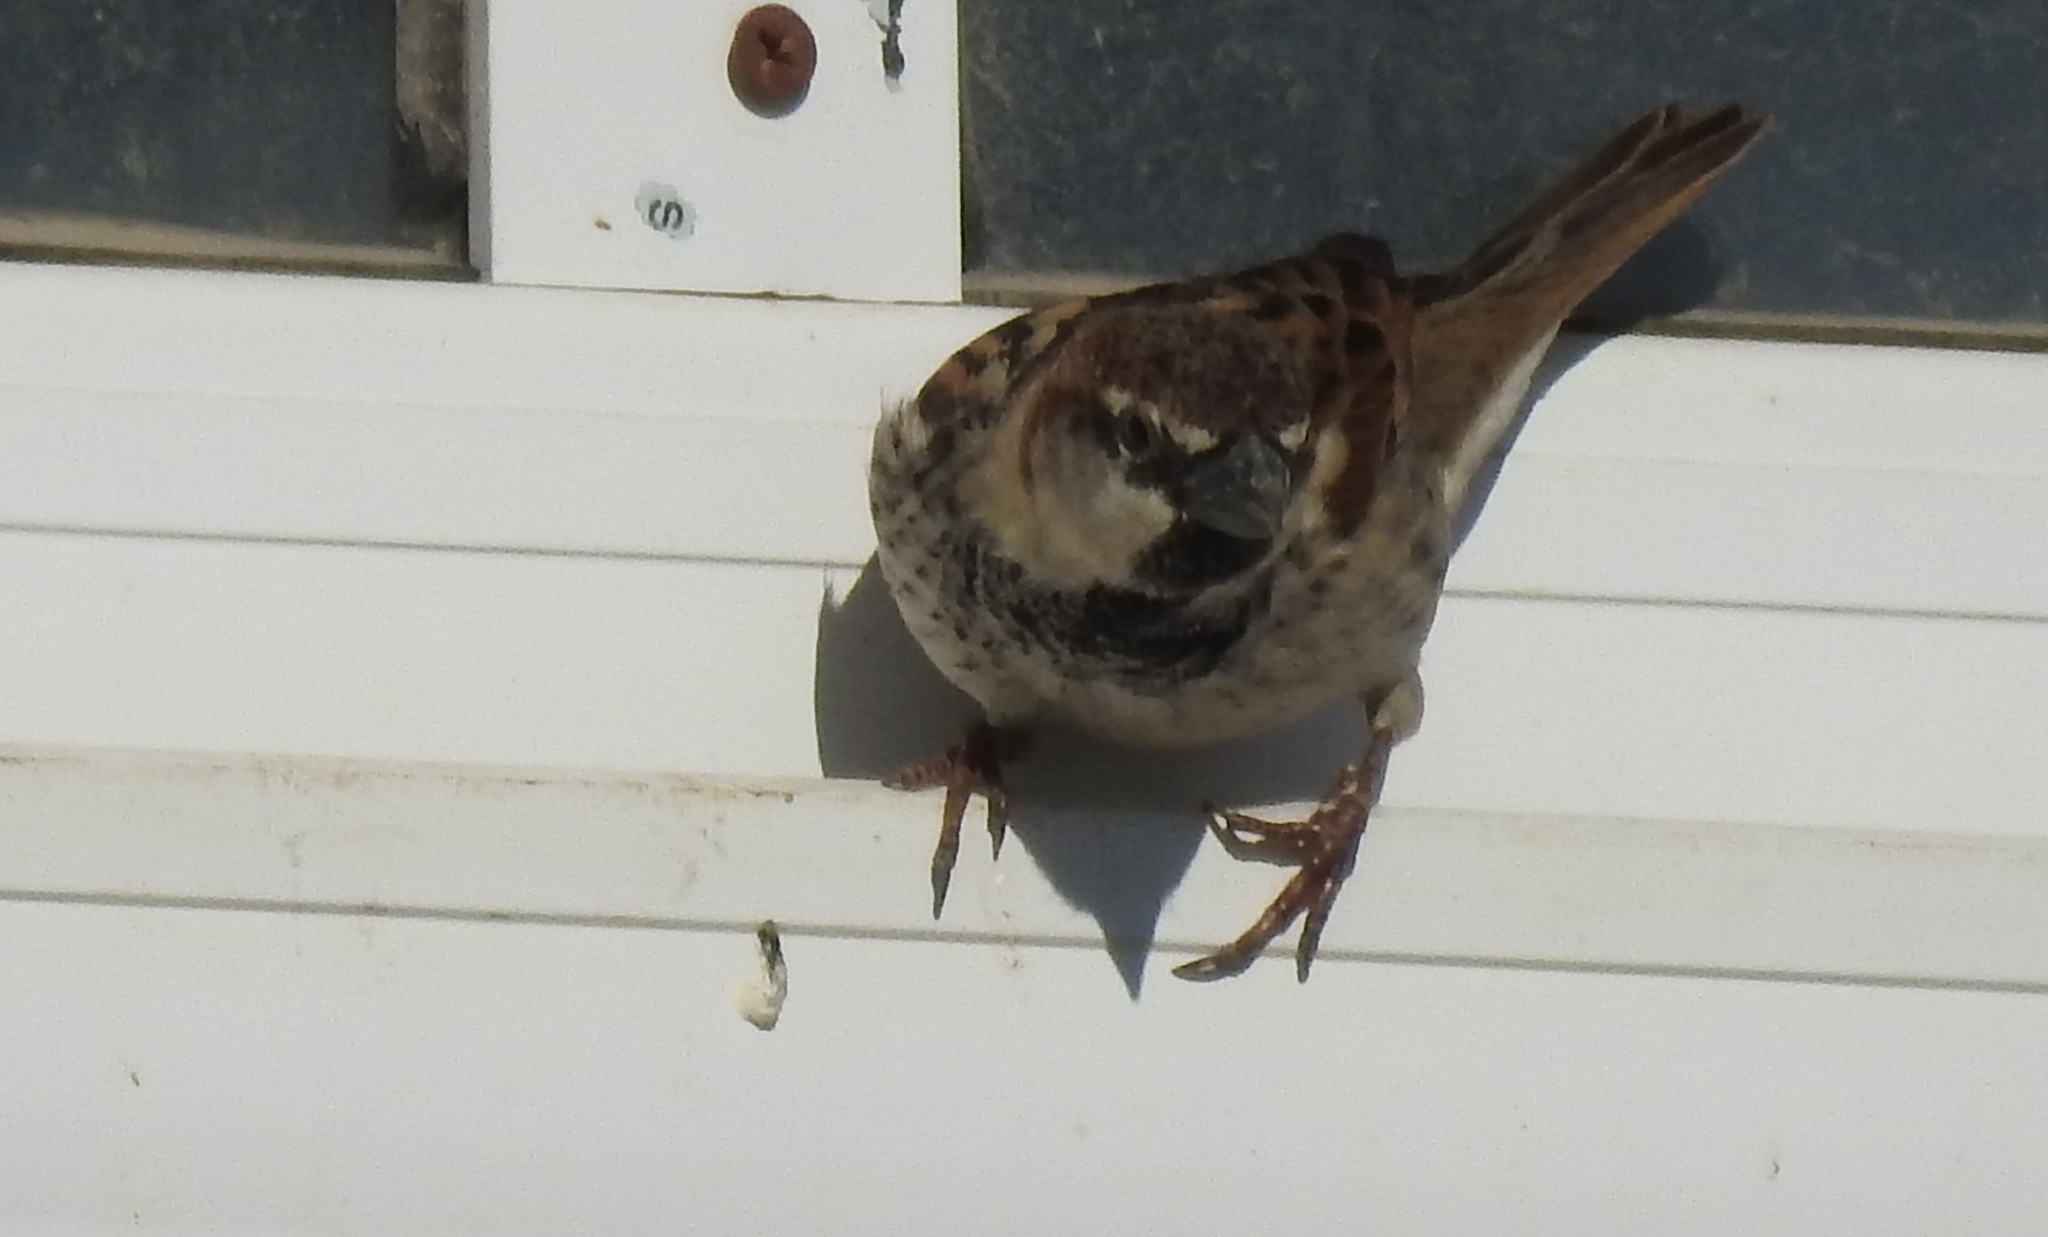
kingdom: Animalia
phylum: Chordata
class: Aves
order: Passeriformes
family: Passeridae
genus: Passer
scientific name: Passer hispaniolensis
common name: Spanish sparrow
